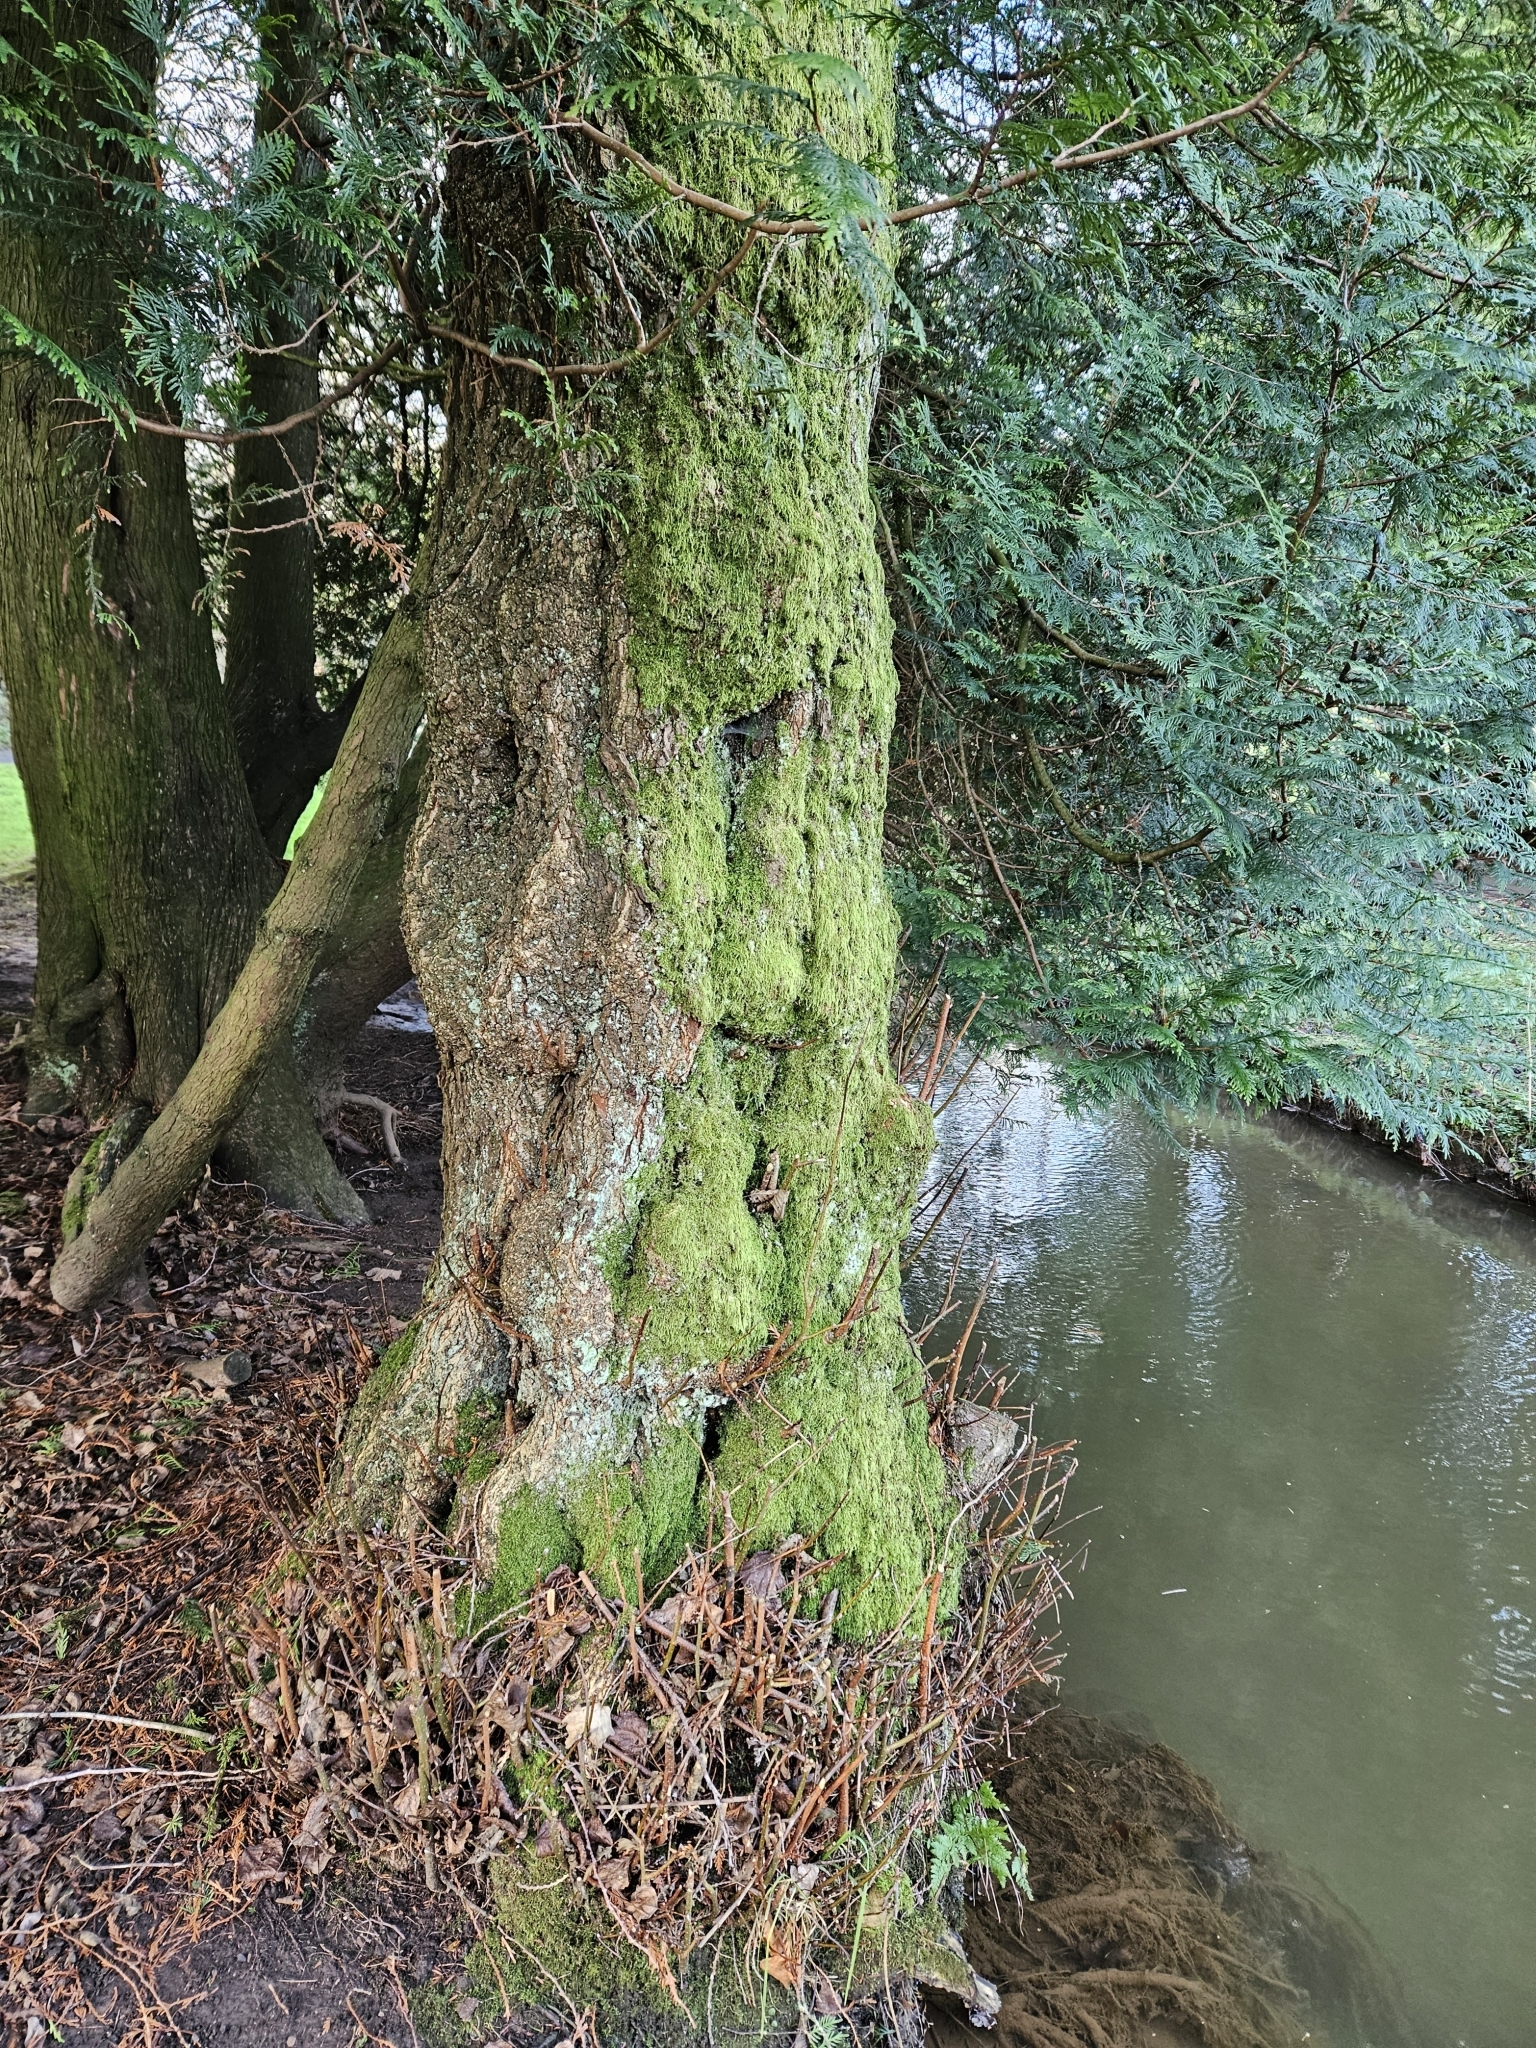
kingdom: Plantae
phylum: Bryophyta
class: Bryopsida
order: Hypnales
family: Hypnaceae
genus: Hypnum
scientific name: Hypnum andoi
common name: Ando's plait moss
